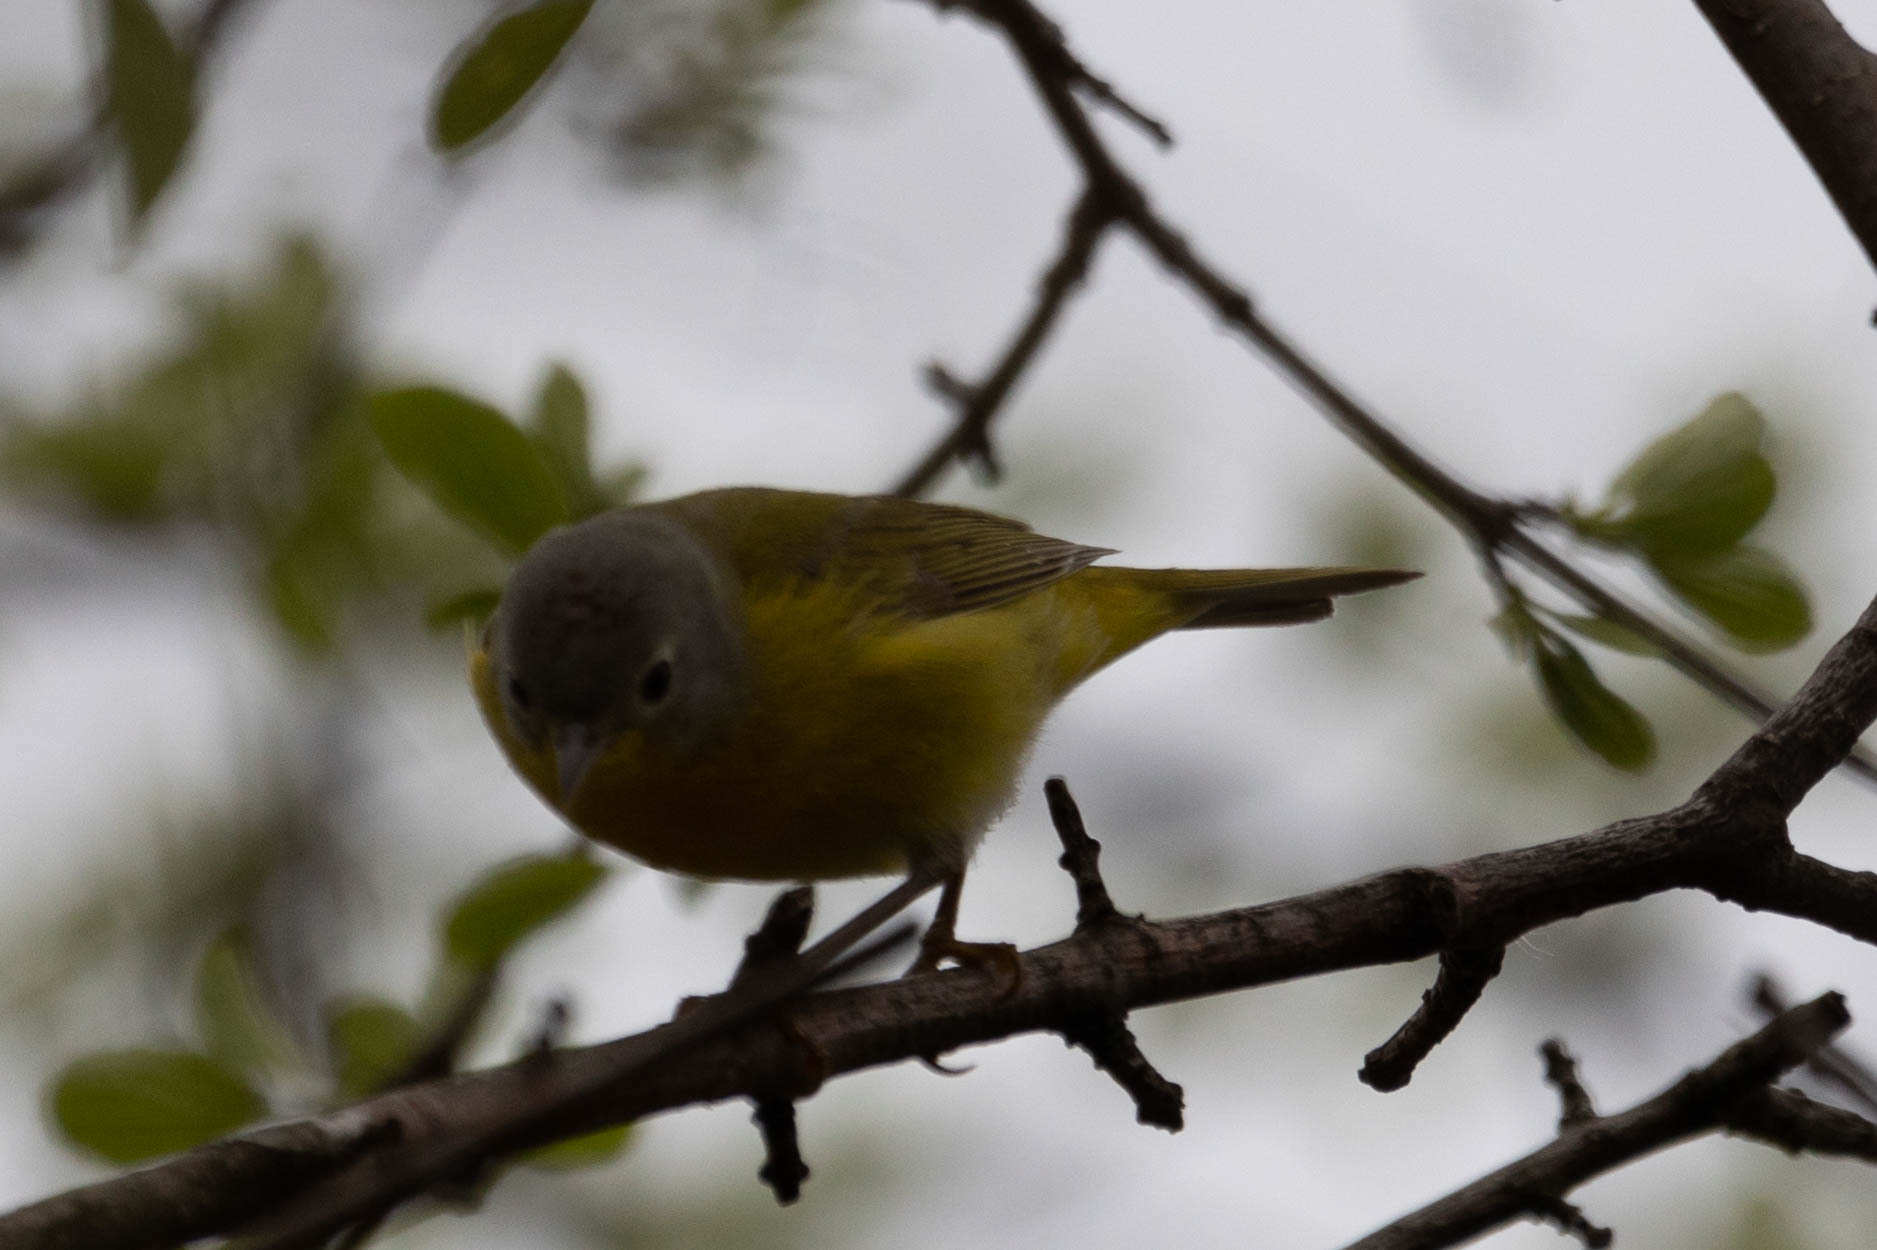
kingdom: Animalia
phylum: Chordata
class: Aves
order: Passeriformes
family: Parulidae
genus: Leiothlypis
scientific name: Leiothlypis ruficapilla
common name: Nashville warbler
